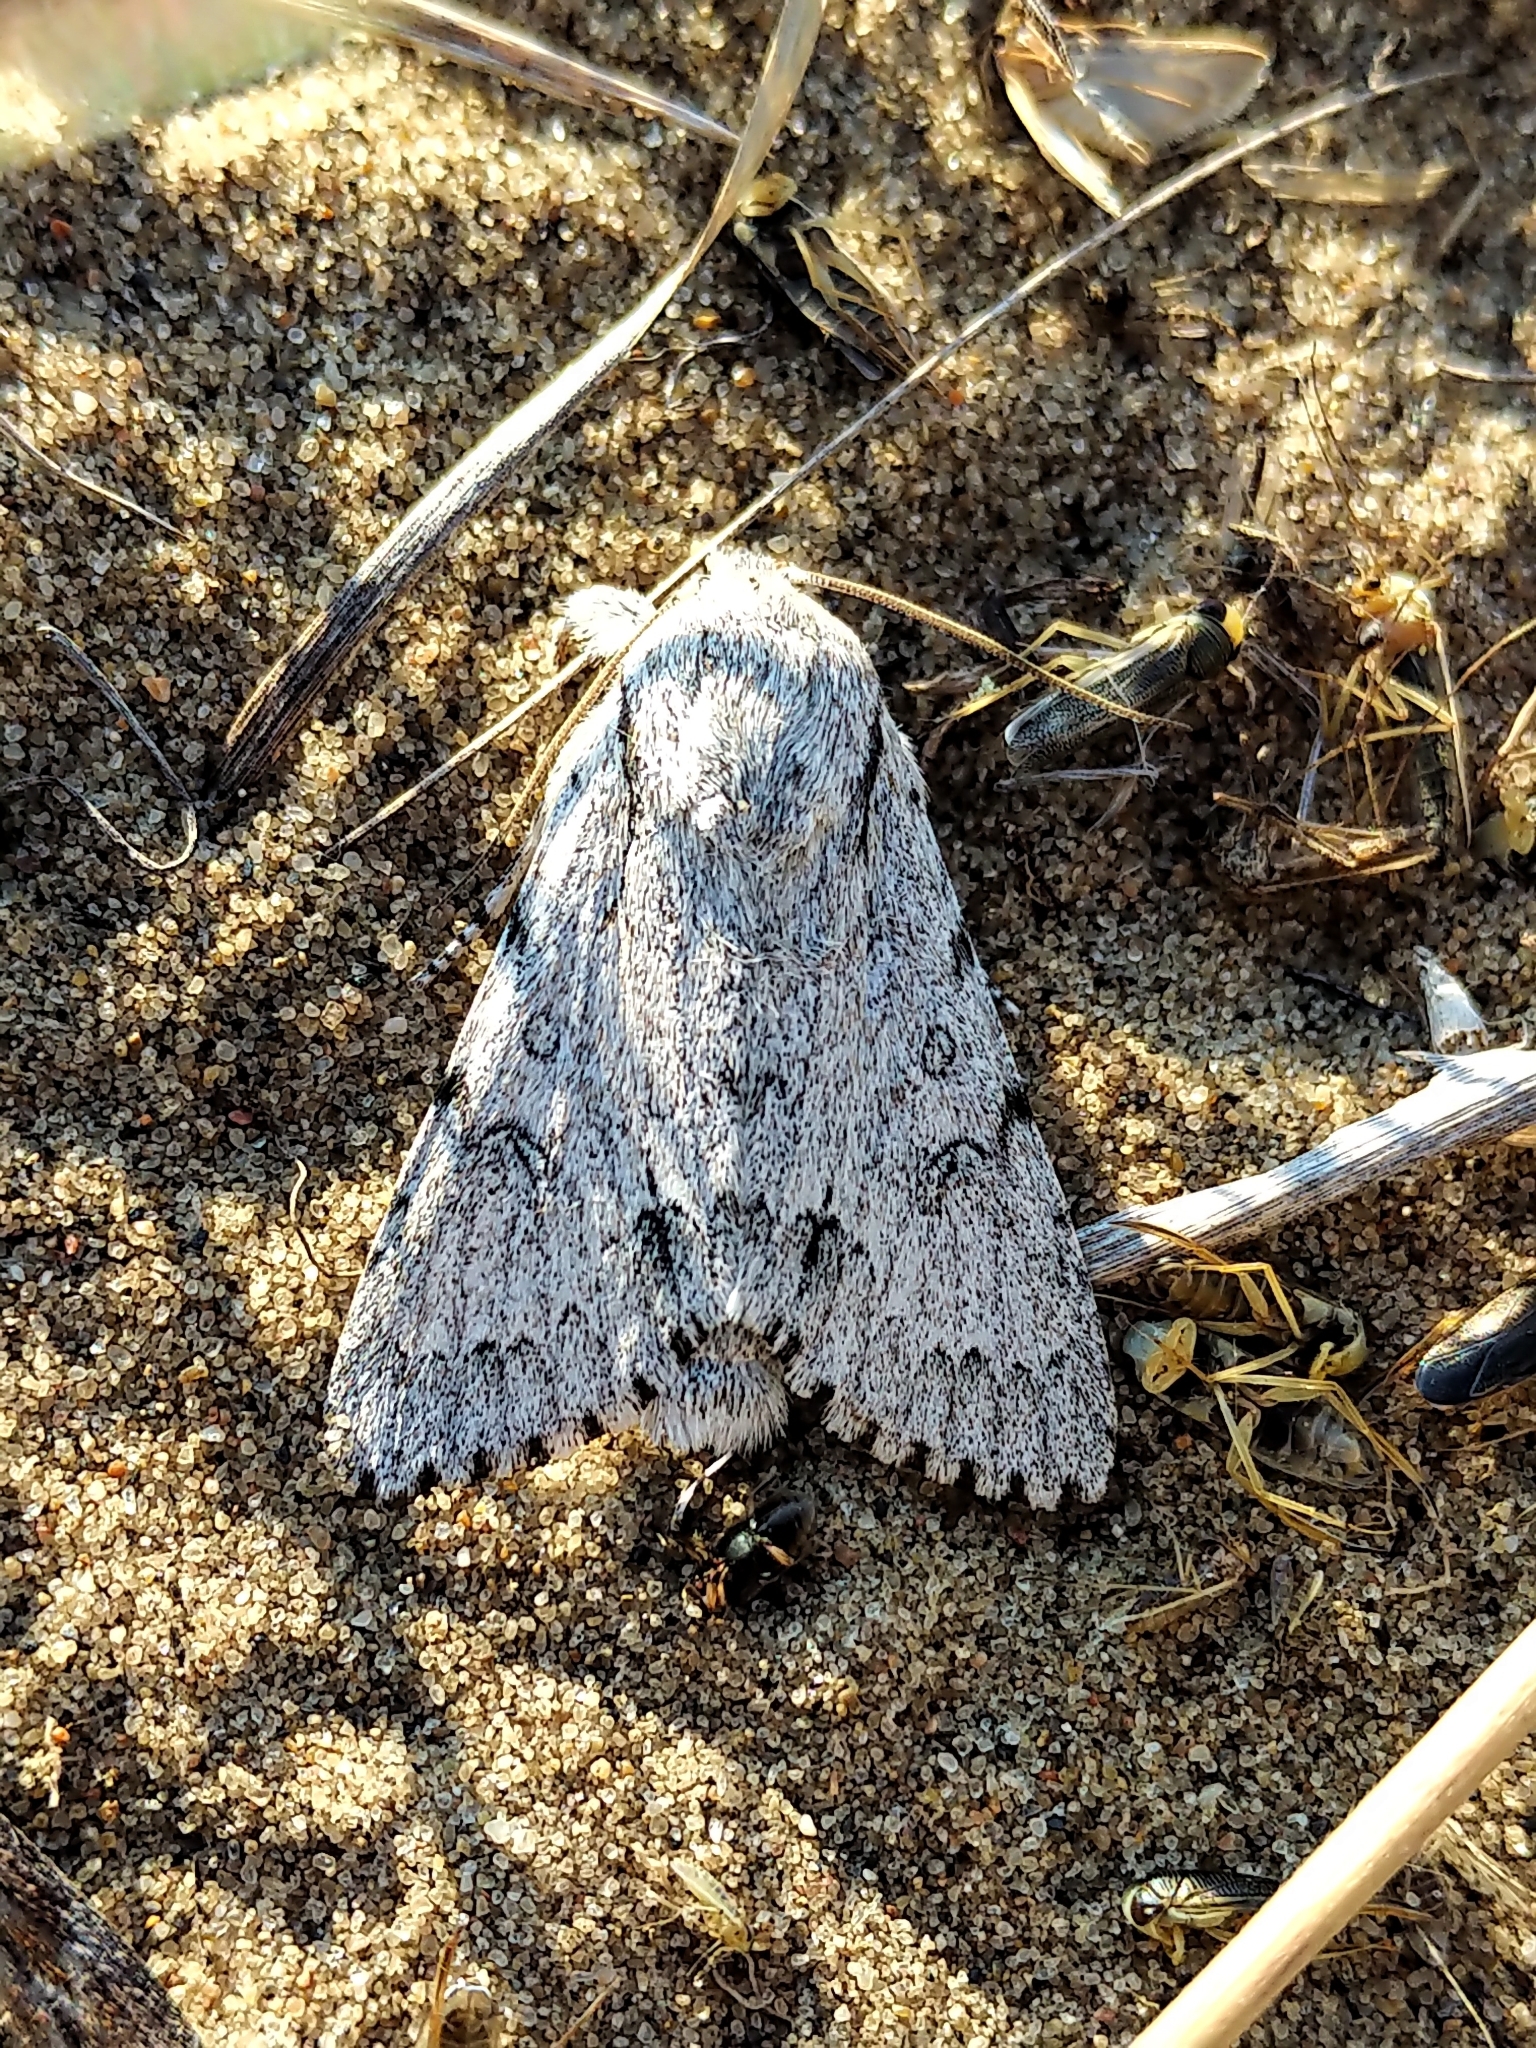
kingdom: Animalia
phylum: Arthropoda
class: Insecta
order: Lepidoptera
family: Noctuidae
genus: Acronicta
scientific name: Acronicta lepusculina
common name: Cottonwood dagger
